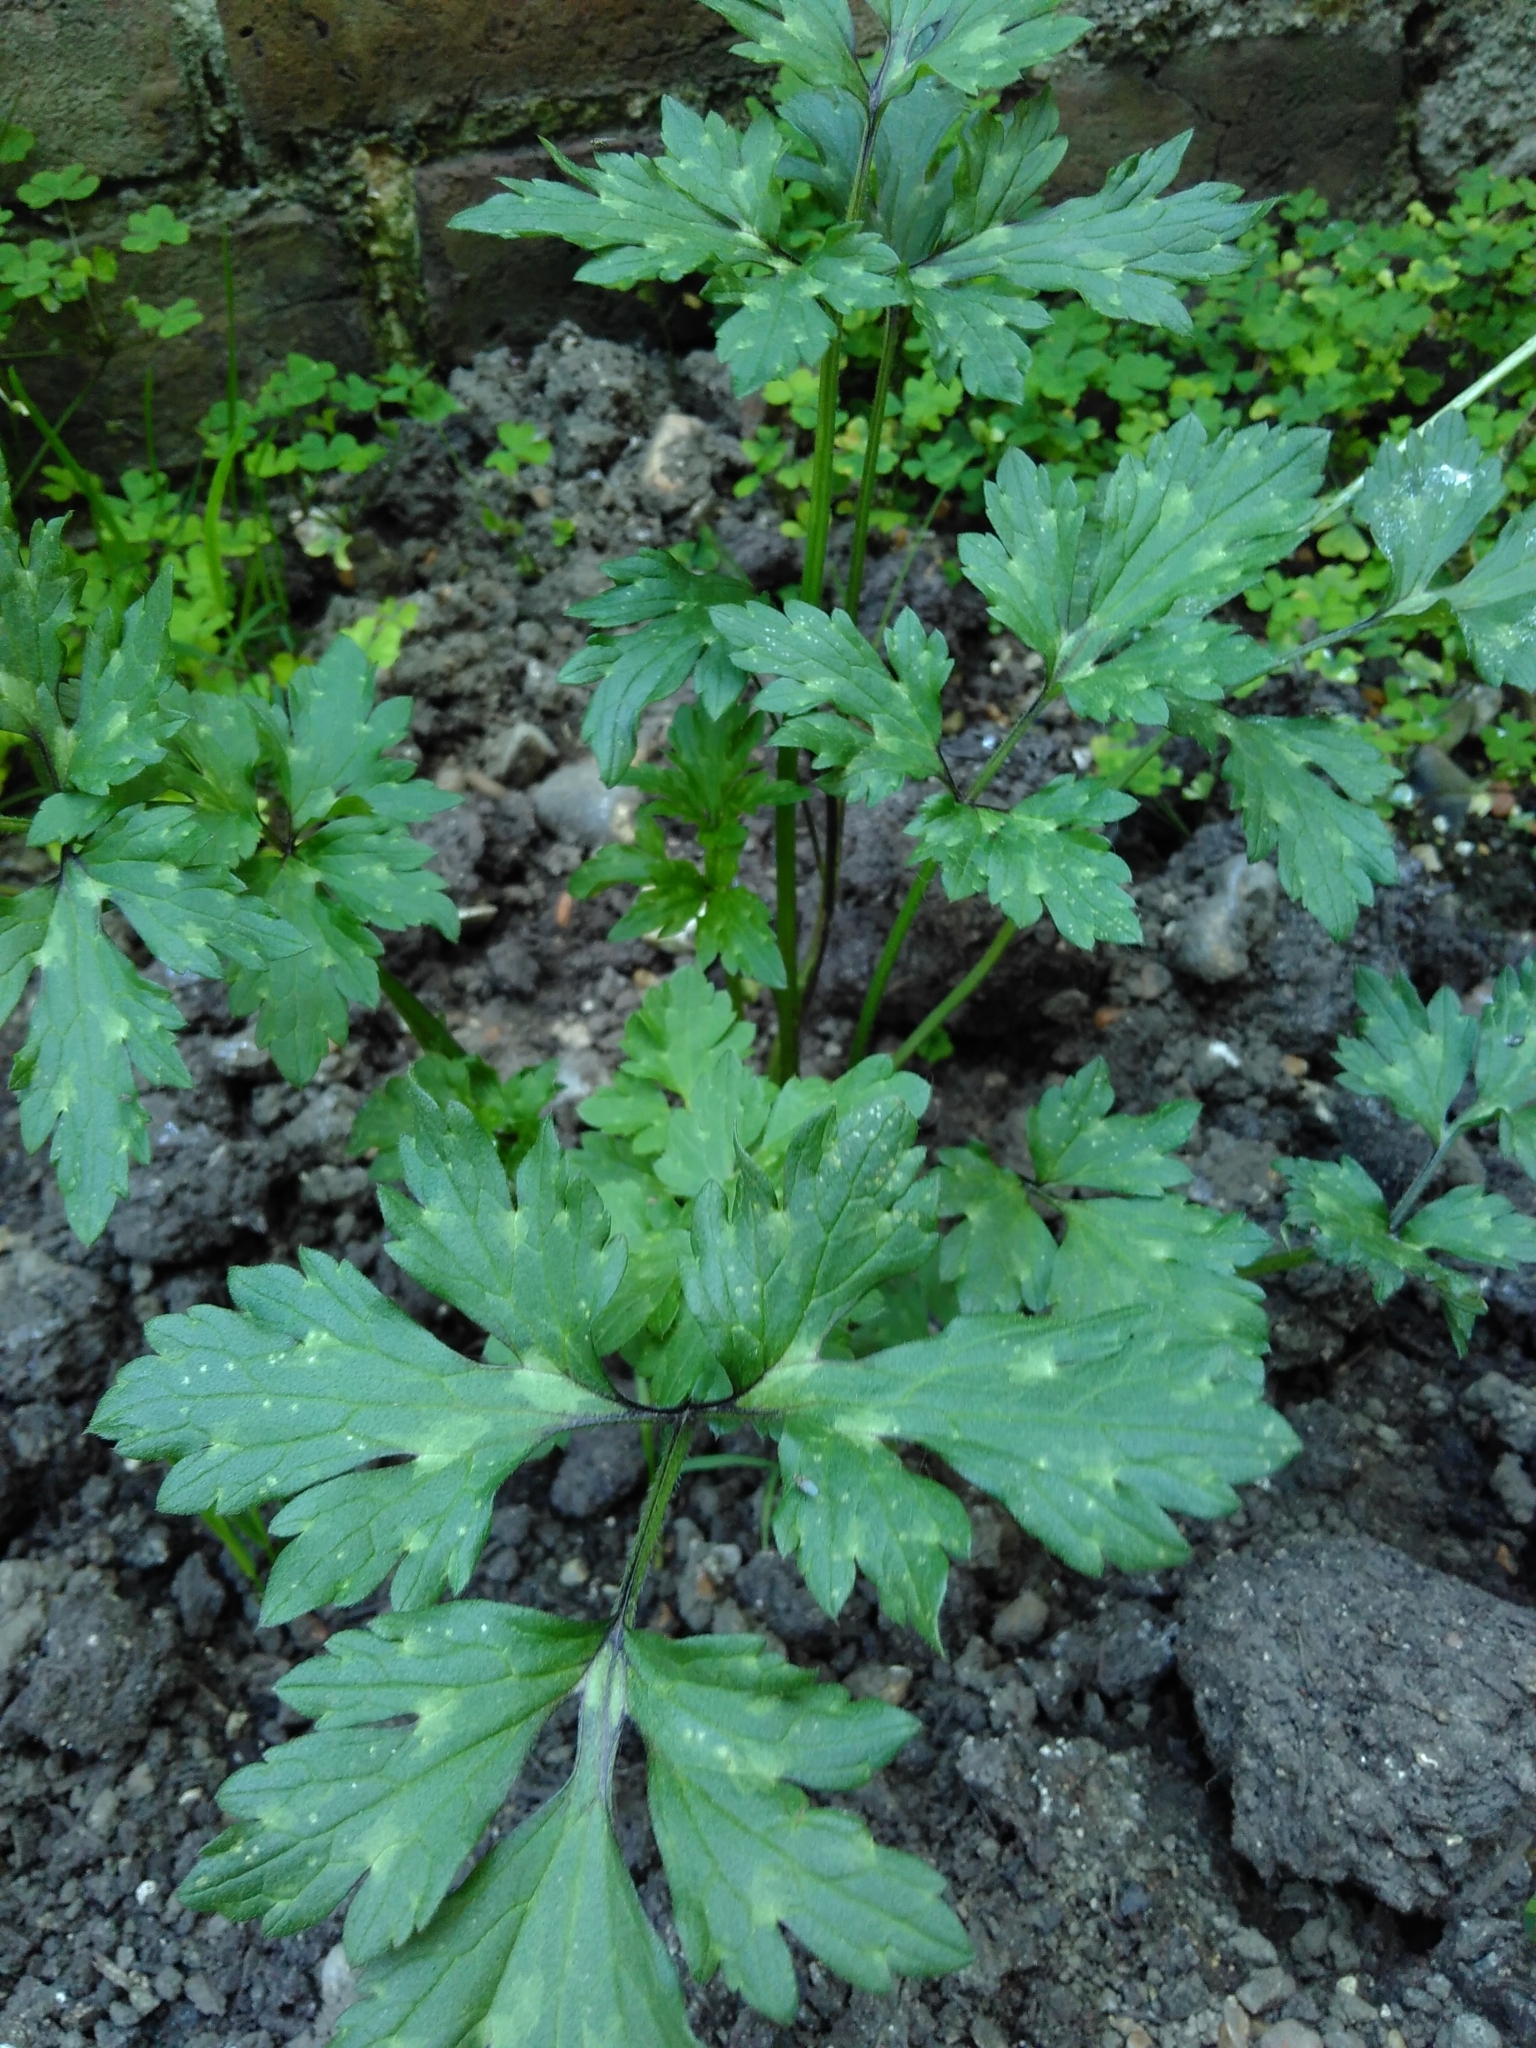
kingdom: Plantae
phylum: Tracheophyta
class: Magnoliopsida
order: Ranunculales
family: Ranunculaceae
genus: Ranunculus
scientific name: Ranunculus repens
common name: Creeping buttercup
